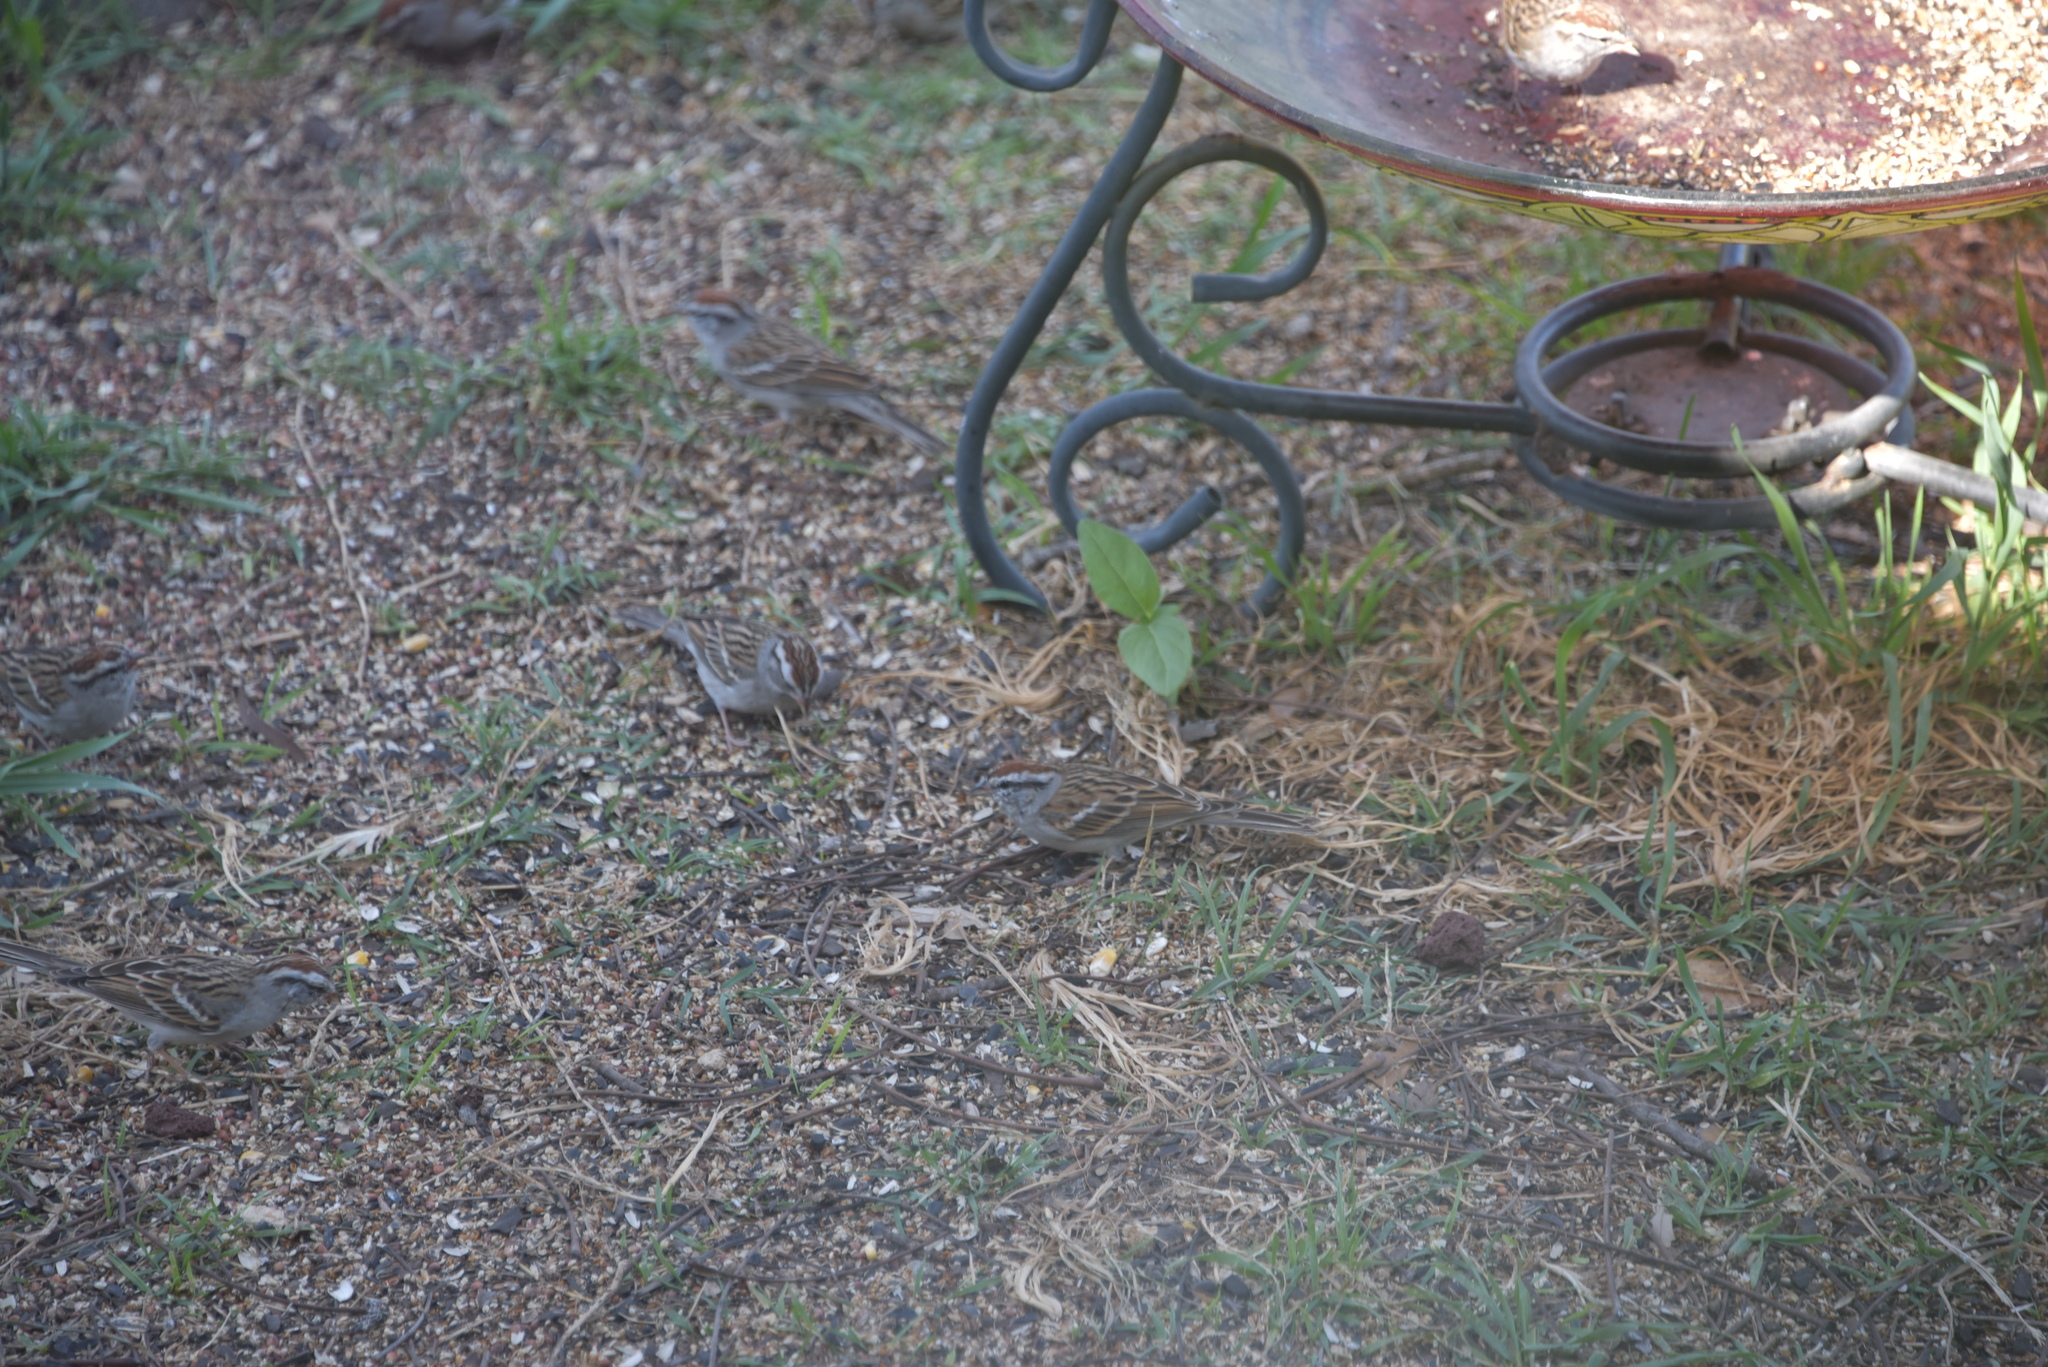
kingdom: Animalia
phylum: Chordata
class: Aves
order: Passeriformes
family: Passerellidae
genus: Spizella
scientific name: Spizella passerina
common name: Chipping sparrow
